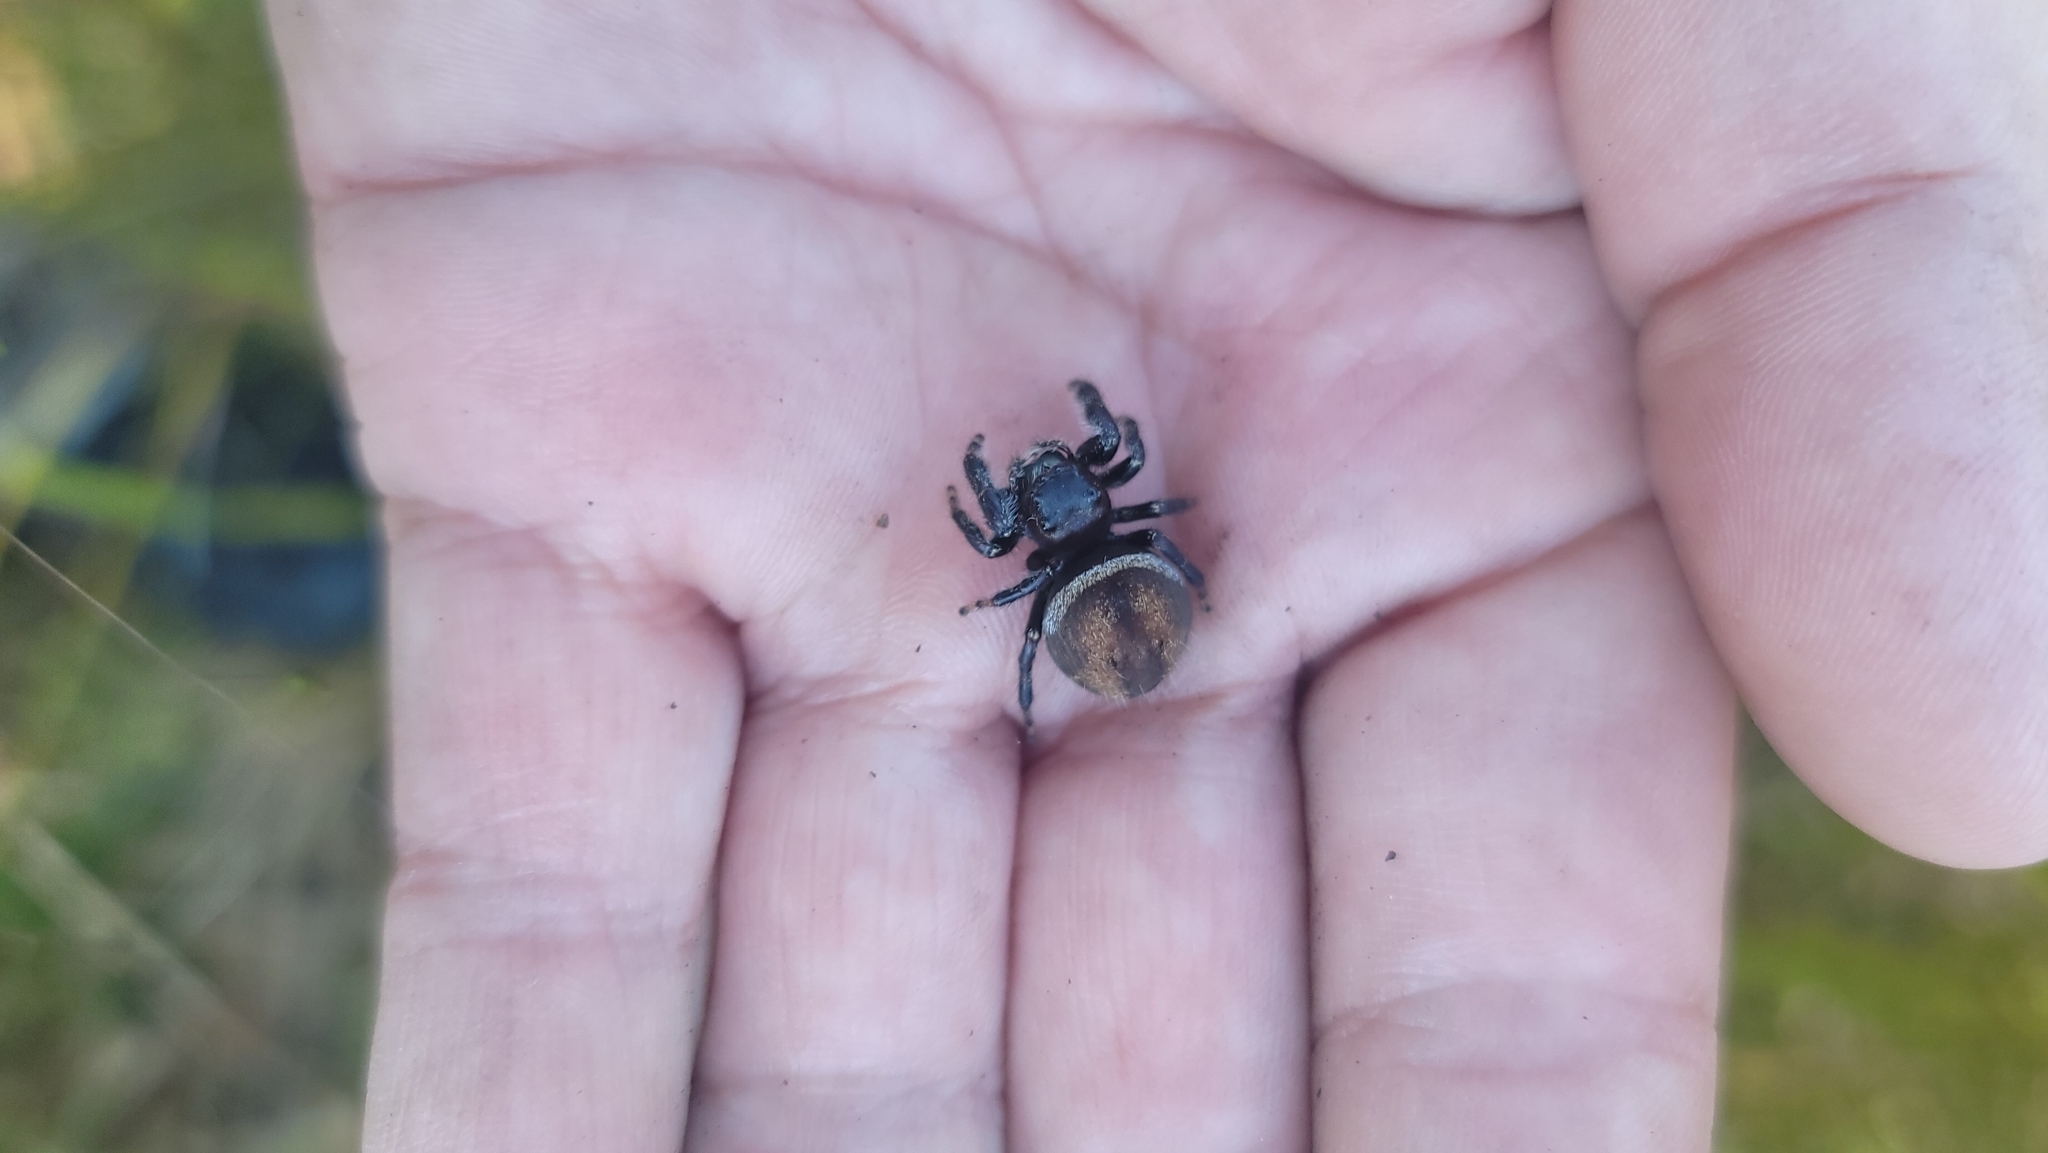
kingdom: Animalia
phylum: Arthropoda
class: Arachnida
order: Araneae
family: Salticidae
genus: Phidippus
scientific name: Phidippus clarus
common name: Brilliant jumping spider
